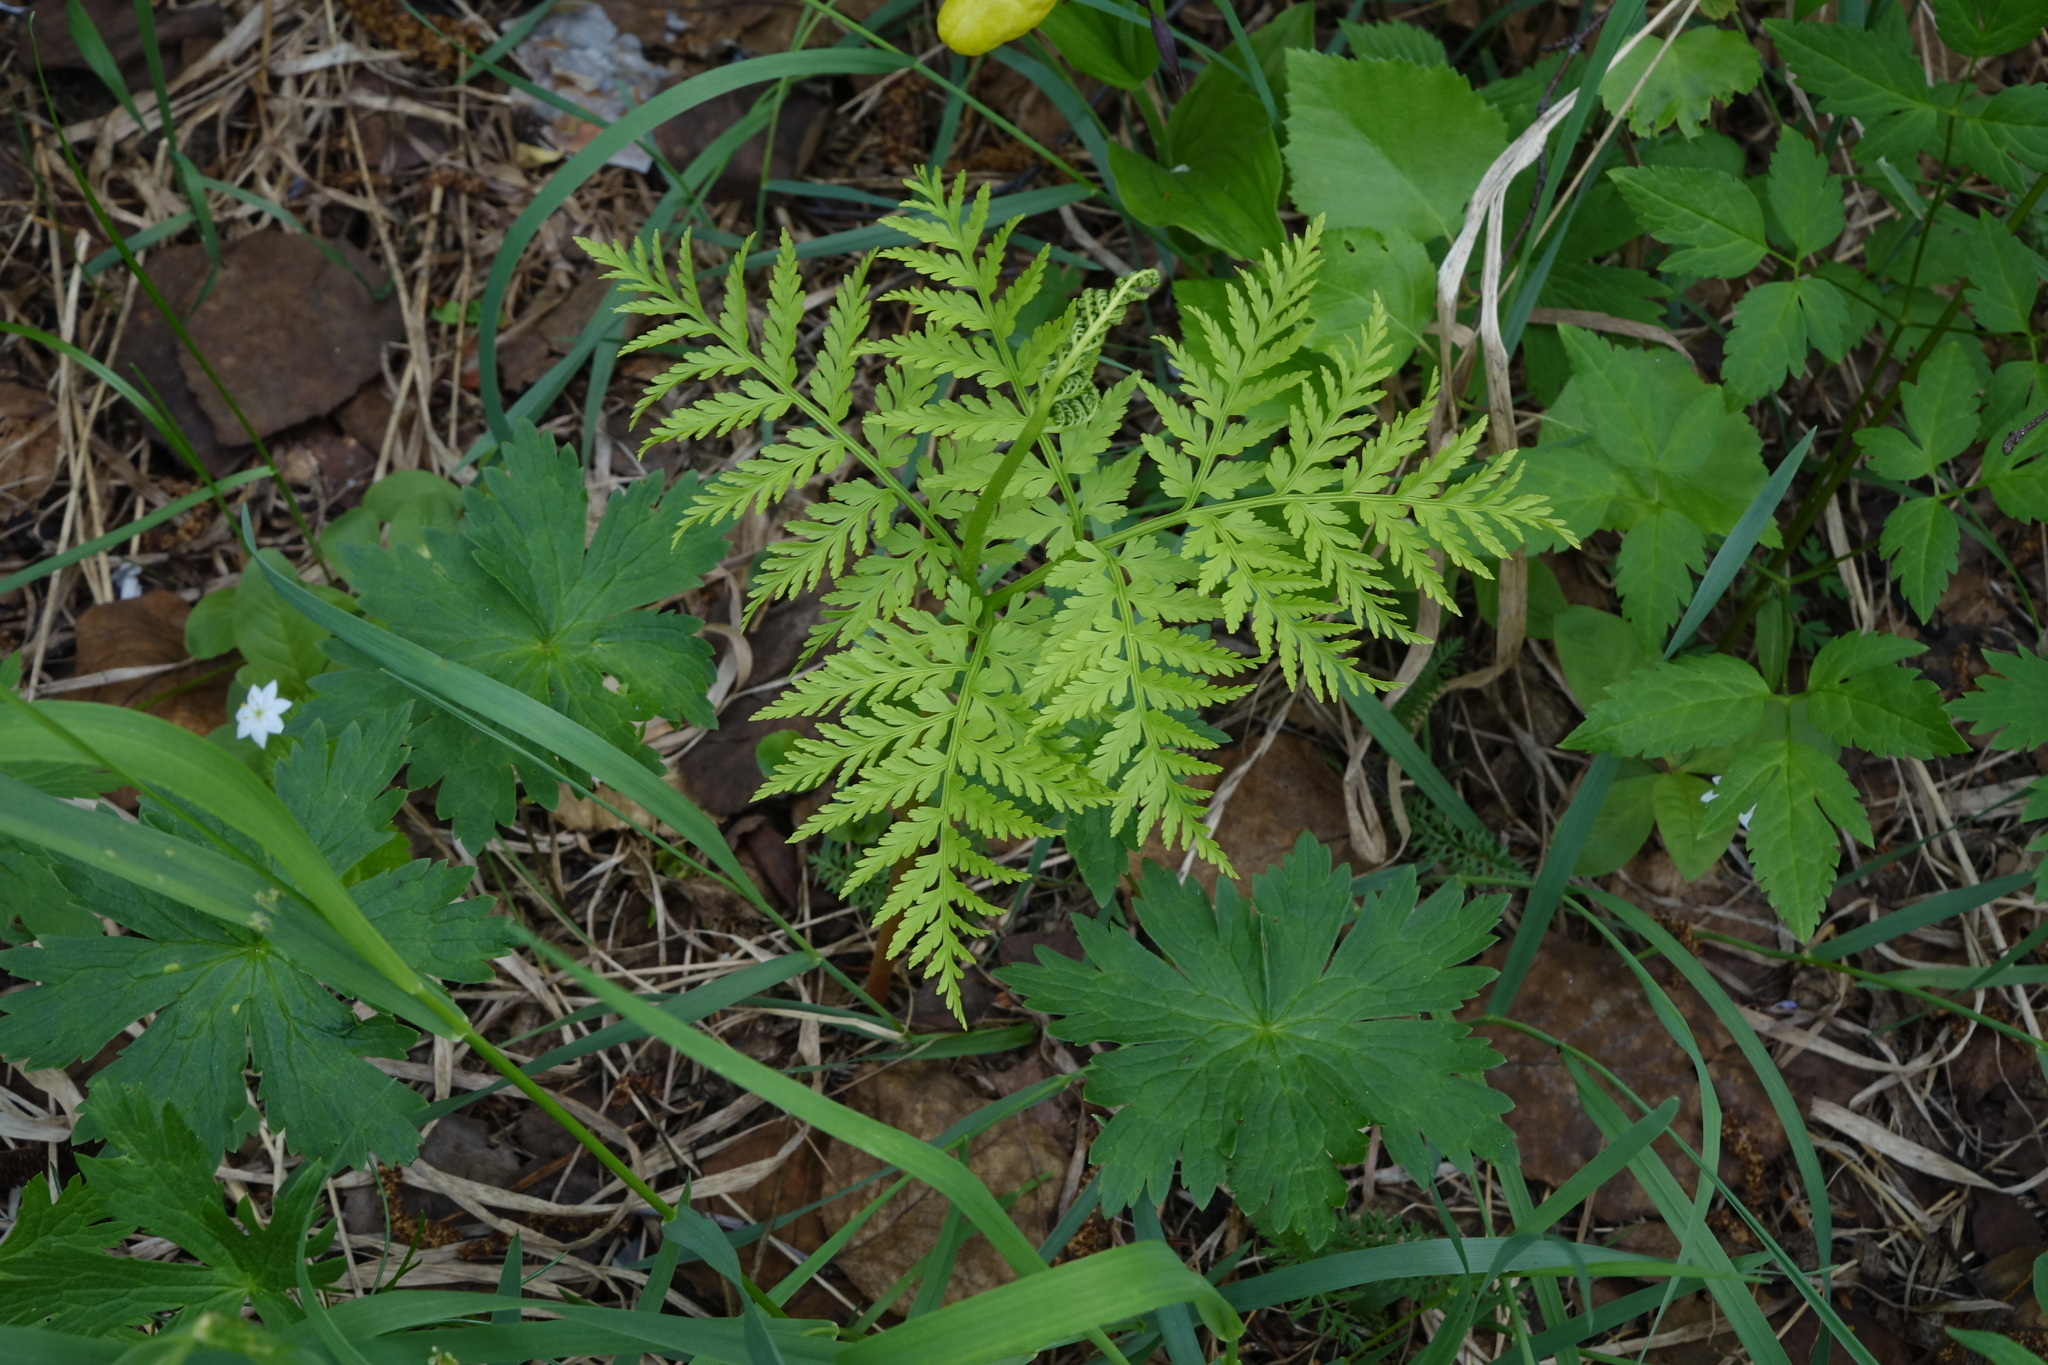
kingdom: Plantae
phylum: Tracheophyta
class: Polypodiopsida
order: Ophioglossales
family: Ophioglossaceae
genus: Botrypus
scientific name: Botrypus virginianus
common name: Common grapefern
